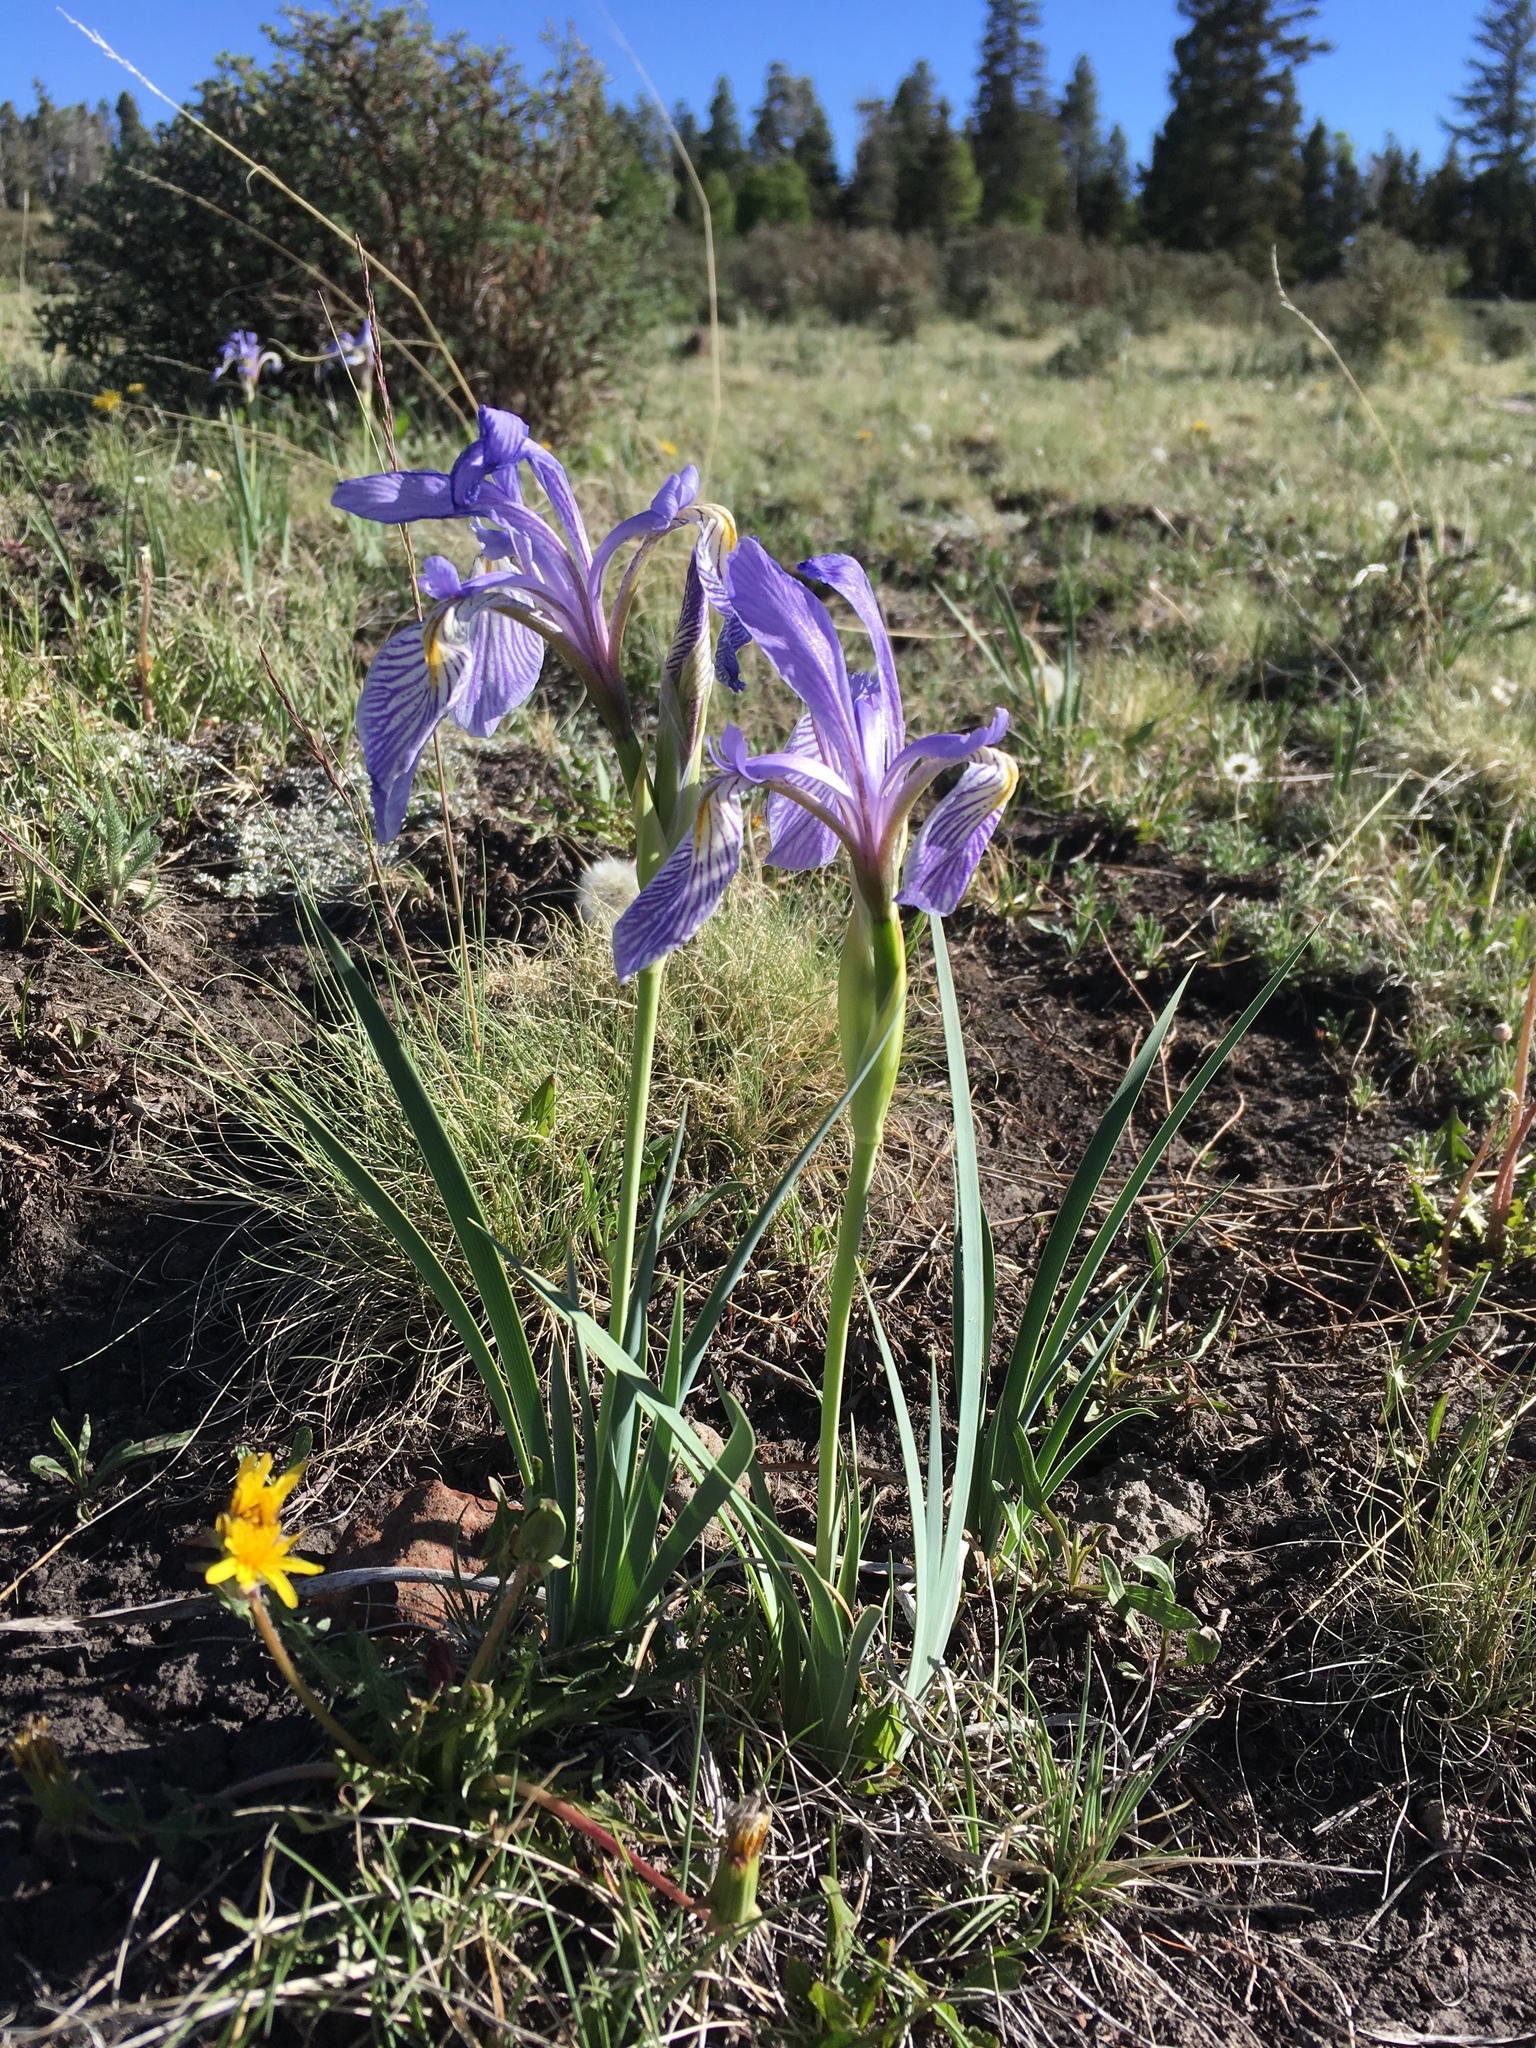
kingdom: Plantae
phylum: Tracheophyta
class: Liliopsida
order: Asparagales
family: Iridaceae
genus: Iris
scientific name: Iris missouriensis
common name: Rocky mountain iris
